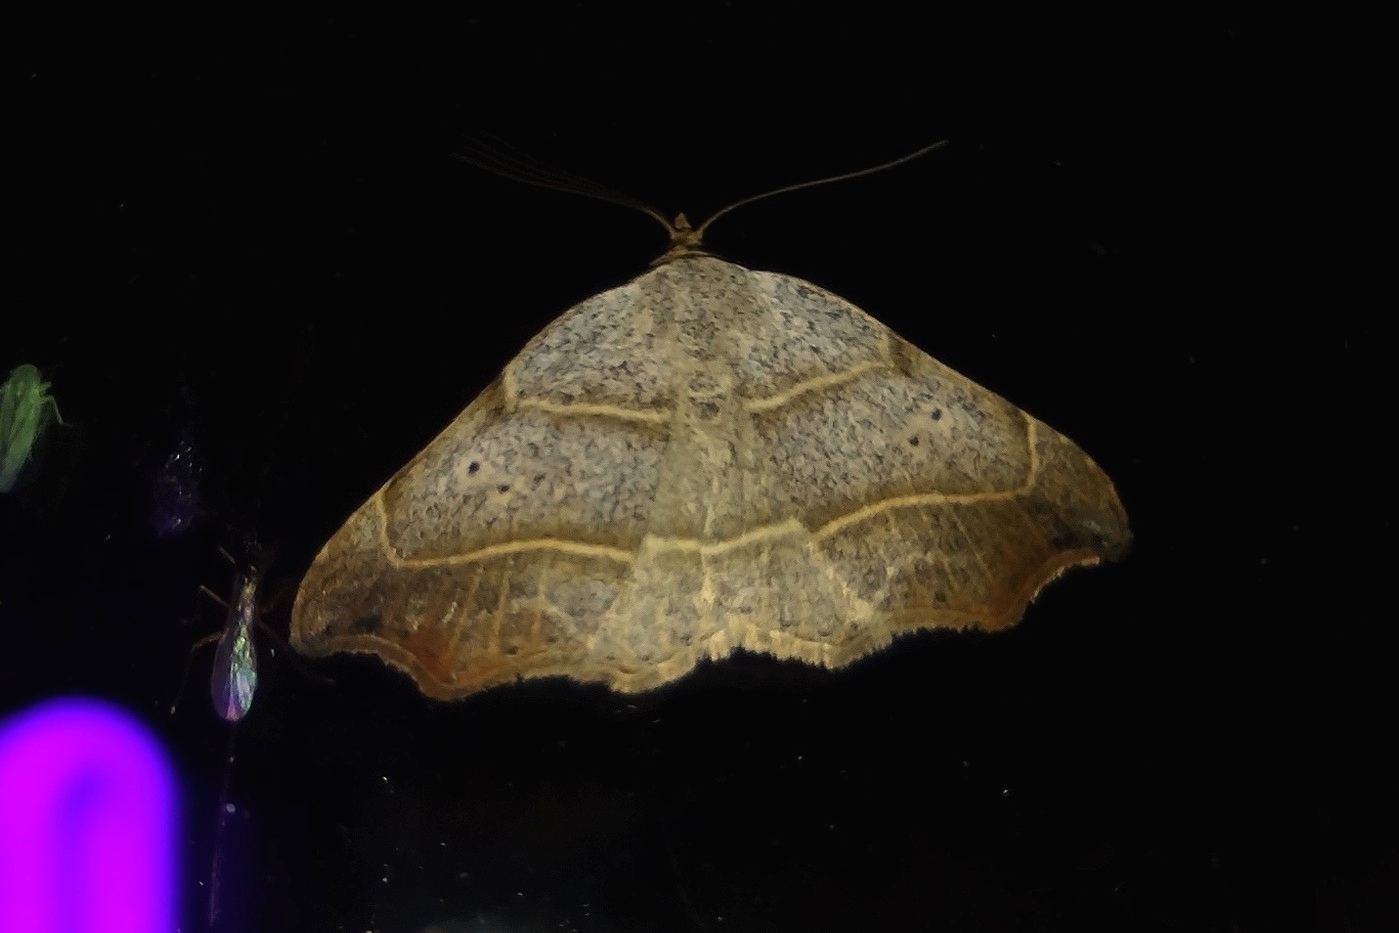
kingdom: Animalia
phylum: Arthropoda
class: Insecta
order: Lepidoptera
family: Erebidae
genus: Laspeyria
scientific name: Laspeyria flexula
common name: Beautiful hook-tip
